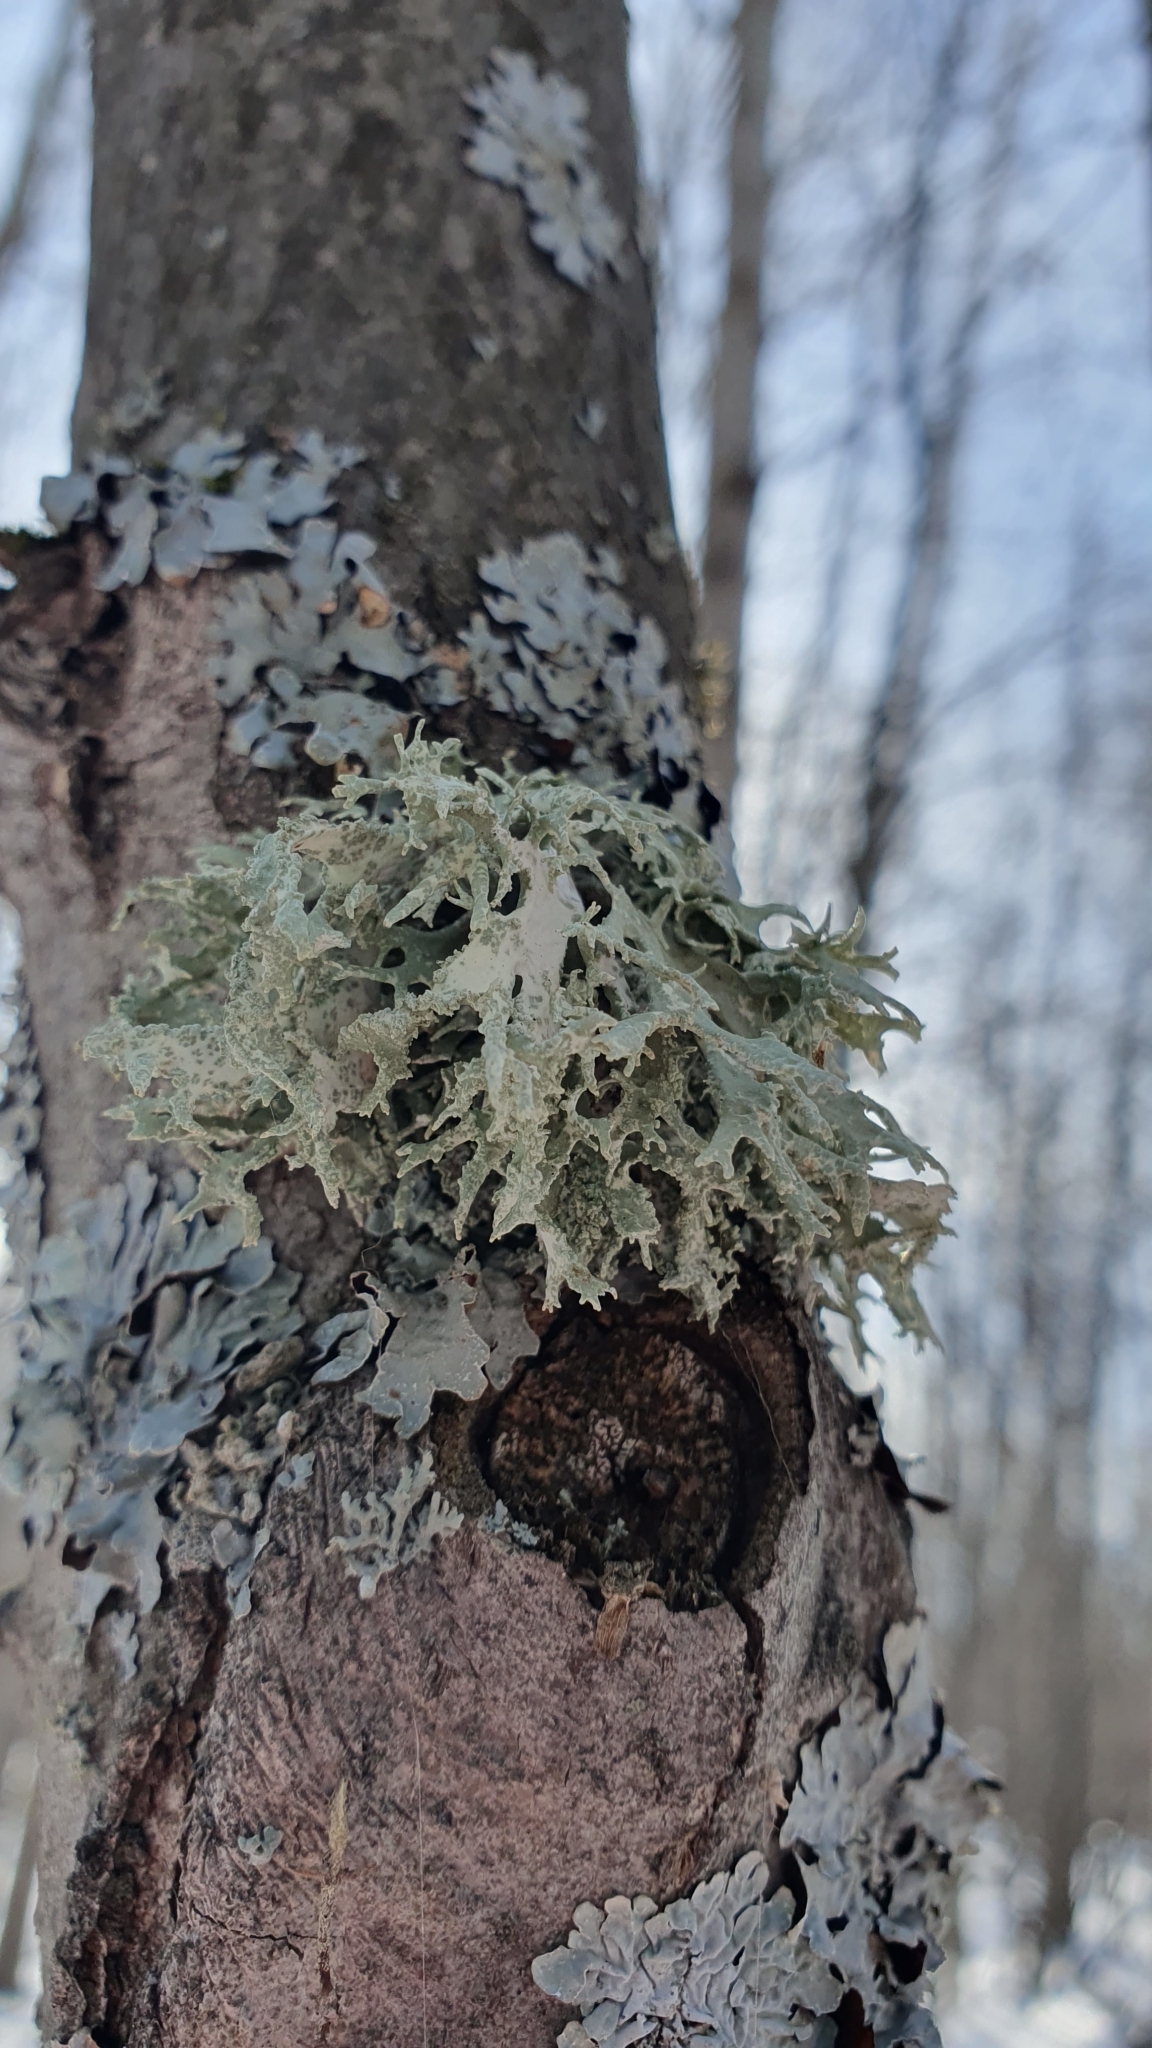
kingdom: Fungi
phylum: Ascomycota
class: Lecanoromycetes
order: Lecanorales
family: Parmeliaceae
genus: Evernia
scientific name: Evernia prunastri
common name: Oak moss
